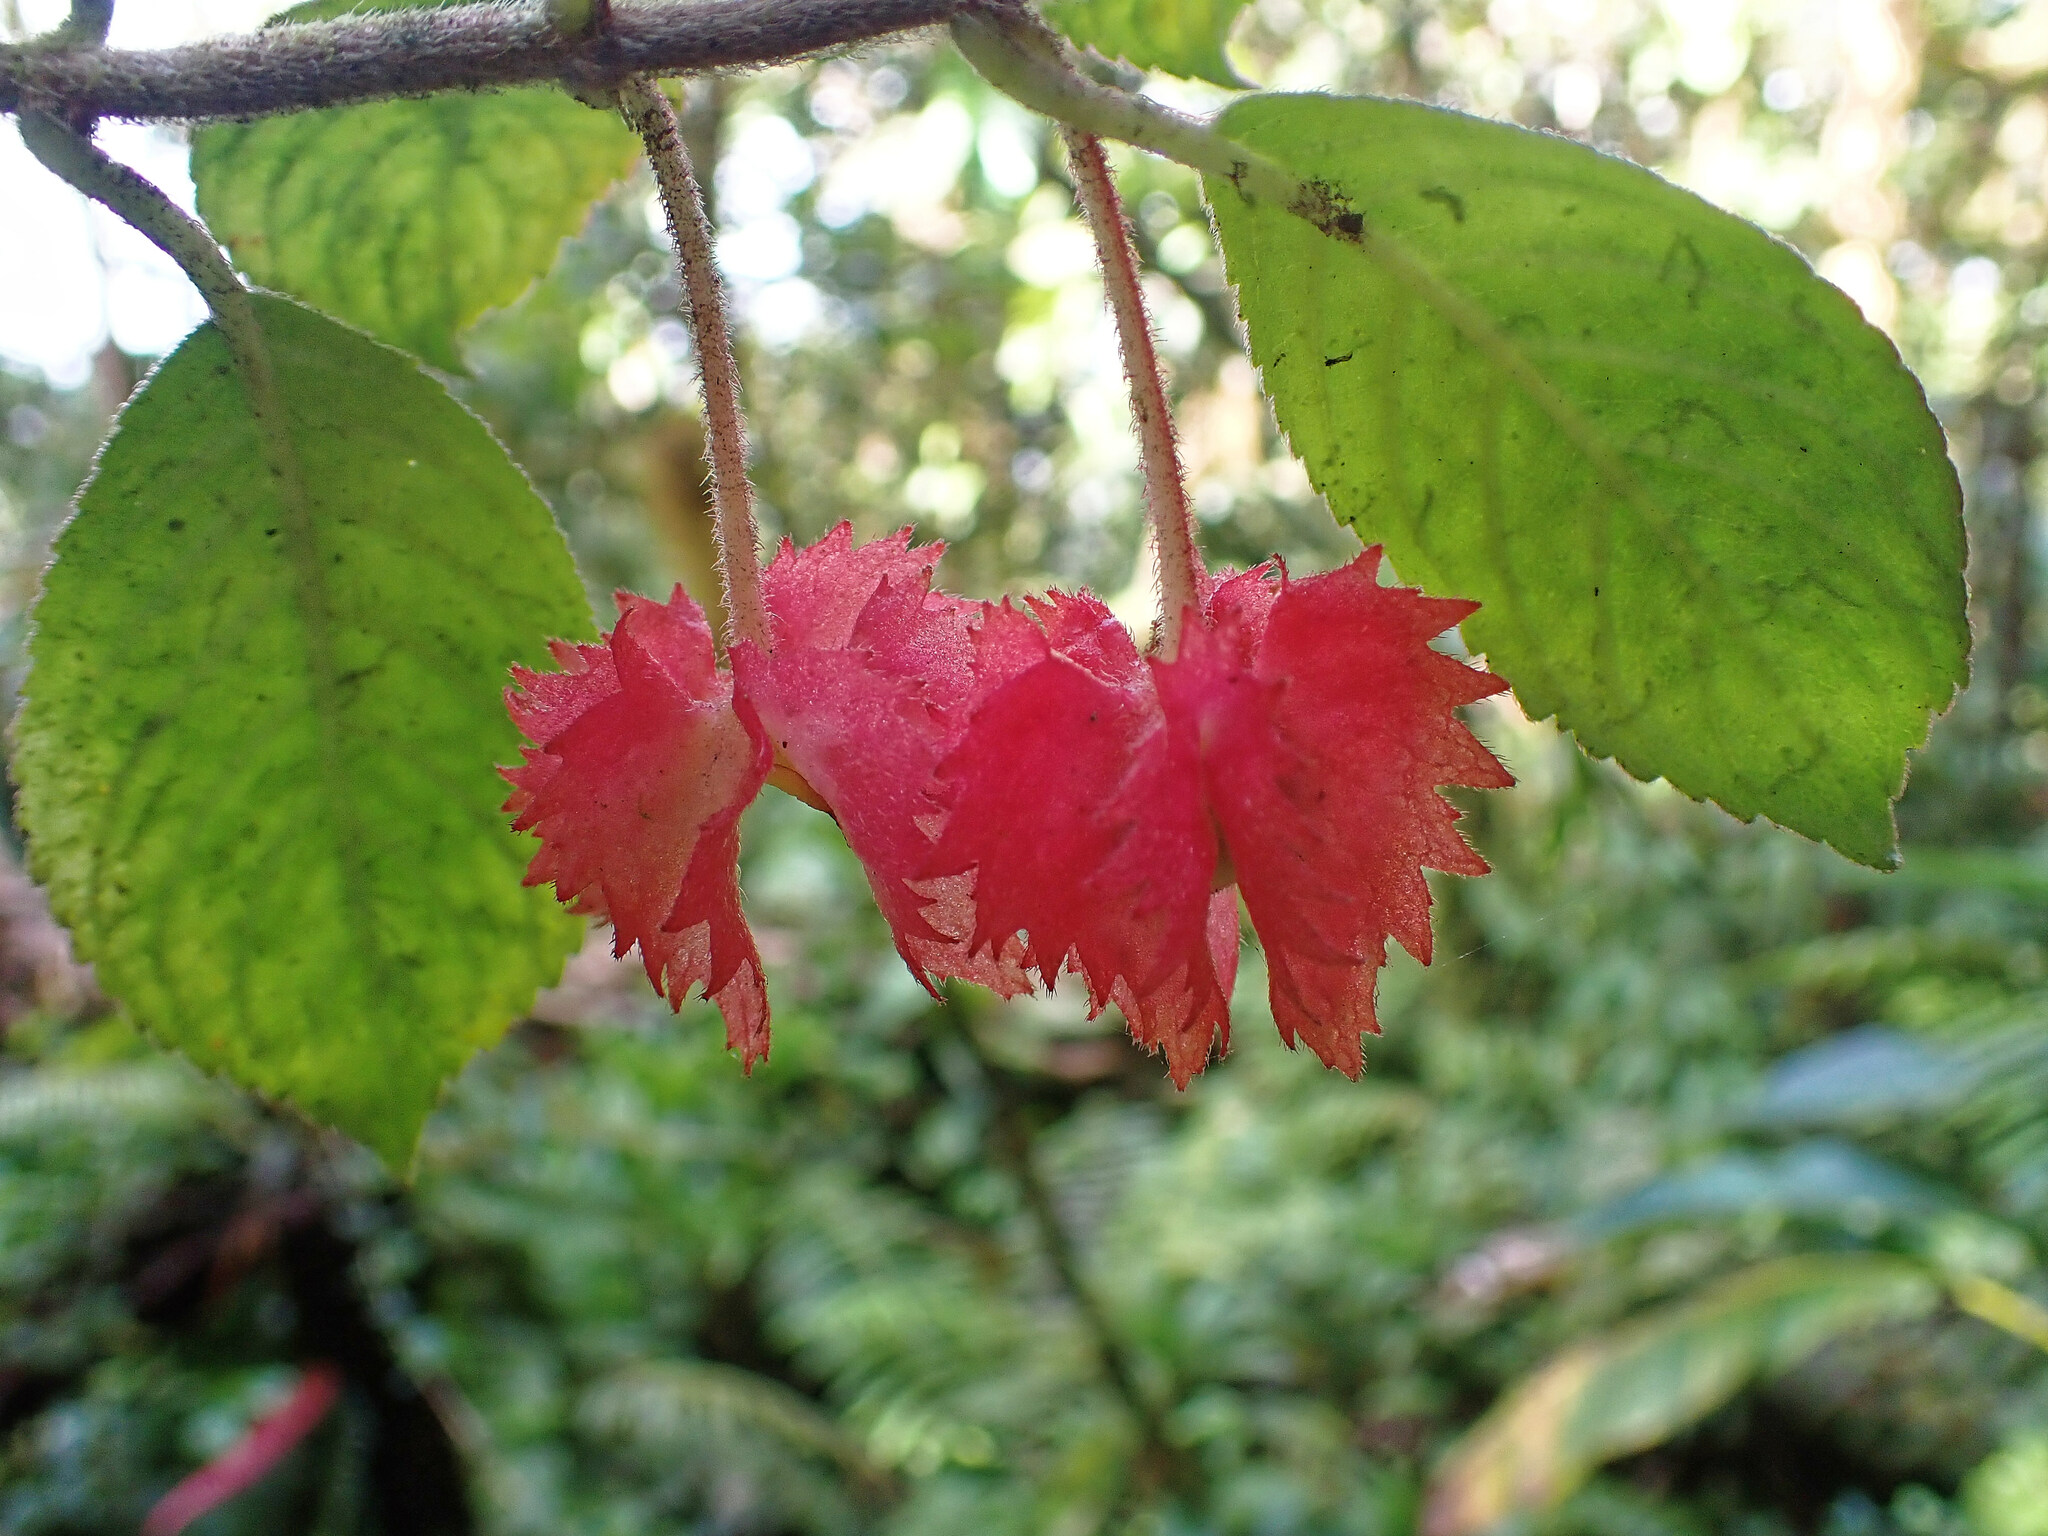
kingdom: Plantae
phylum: Tracheophyta
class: Magnoliopsida
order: Lamiales
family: Gesneriaceae
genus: Crantzia
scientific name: Crantzia cristata
